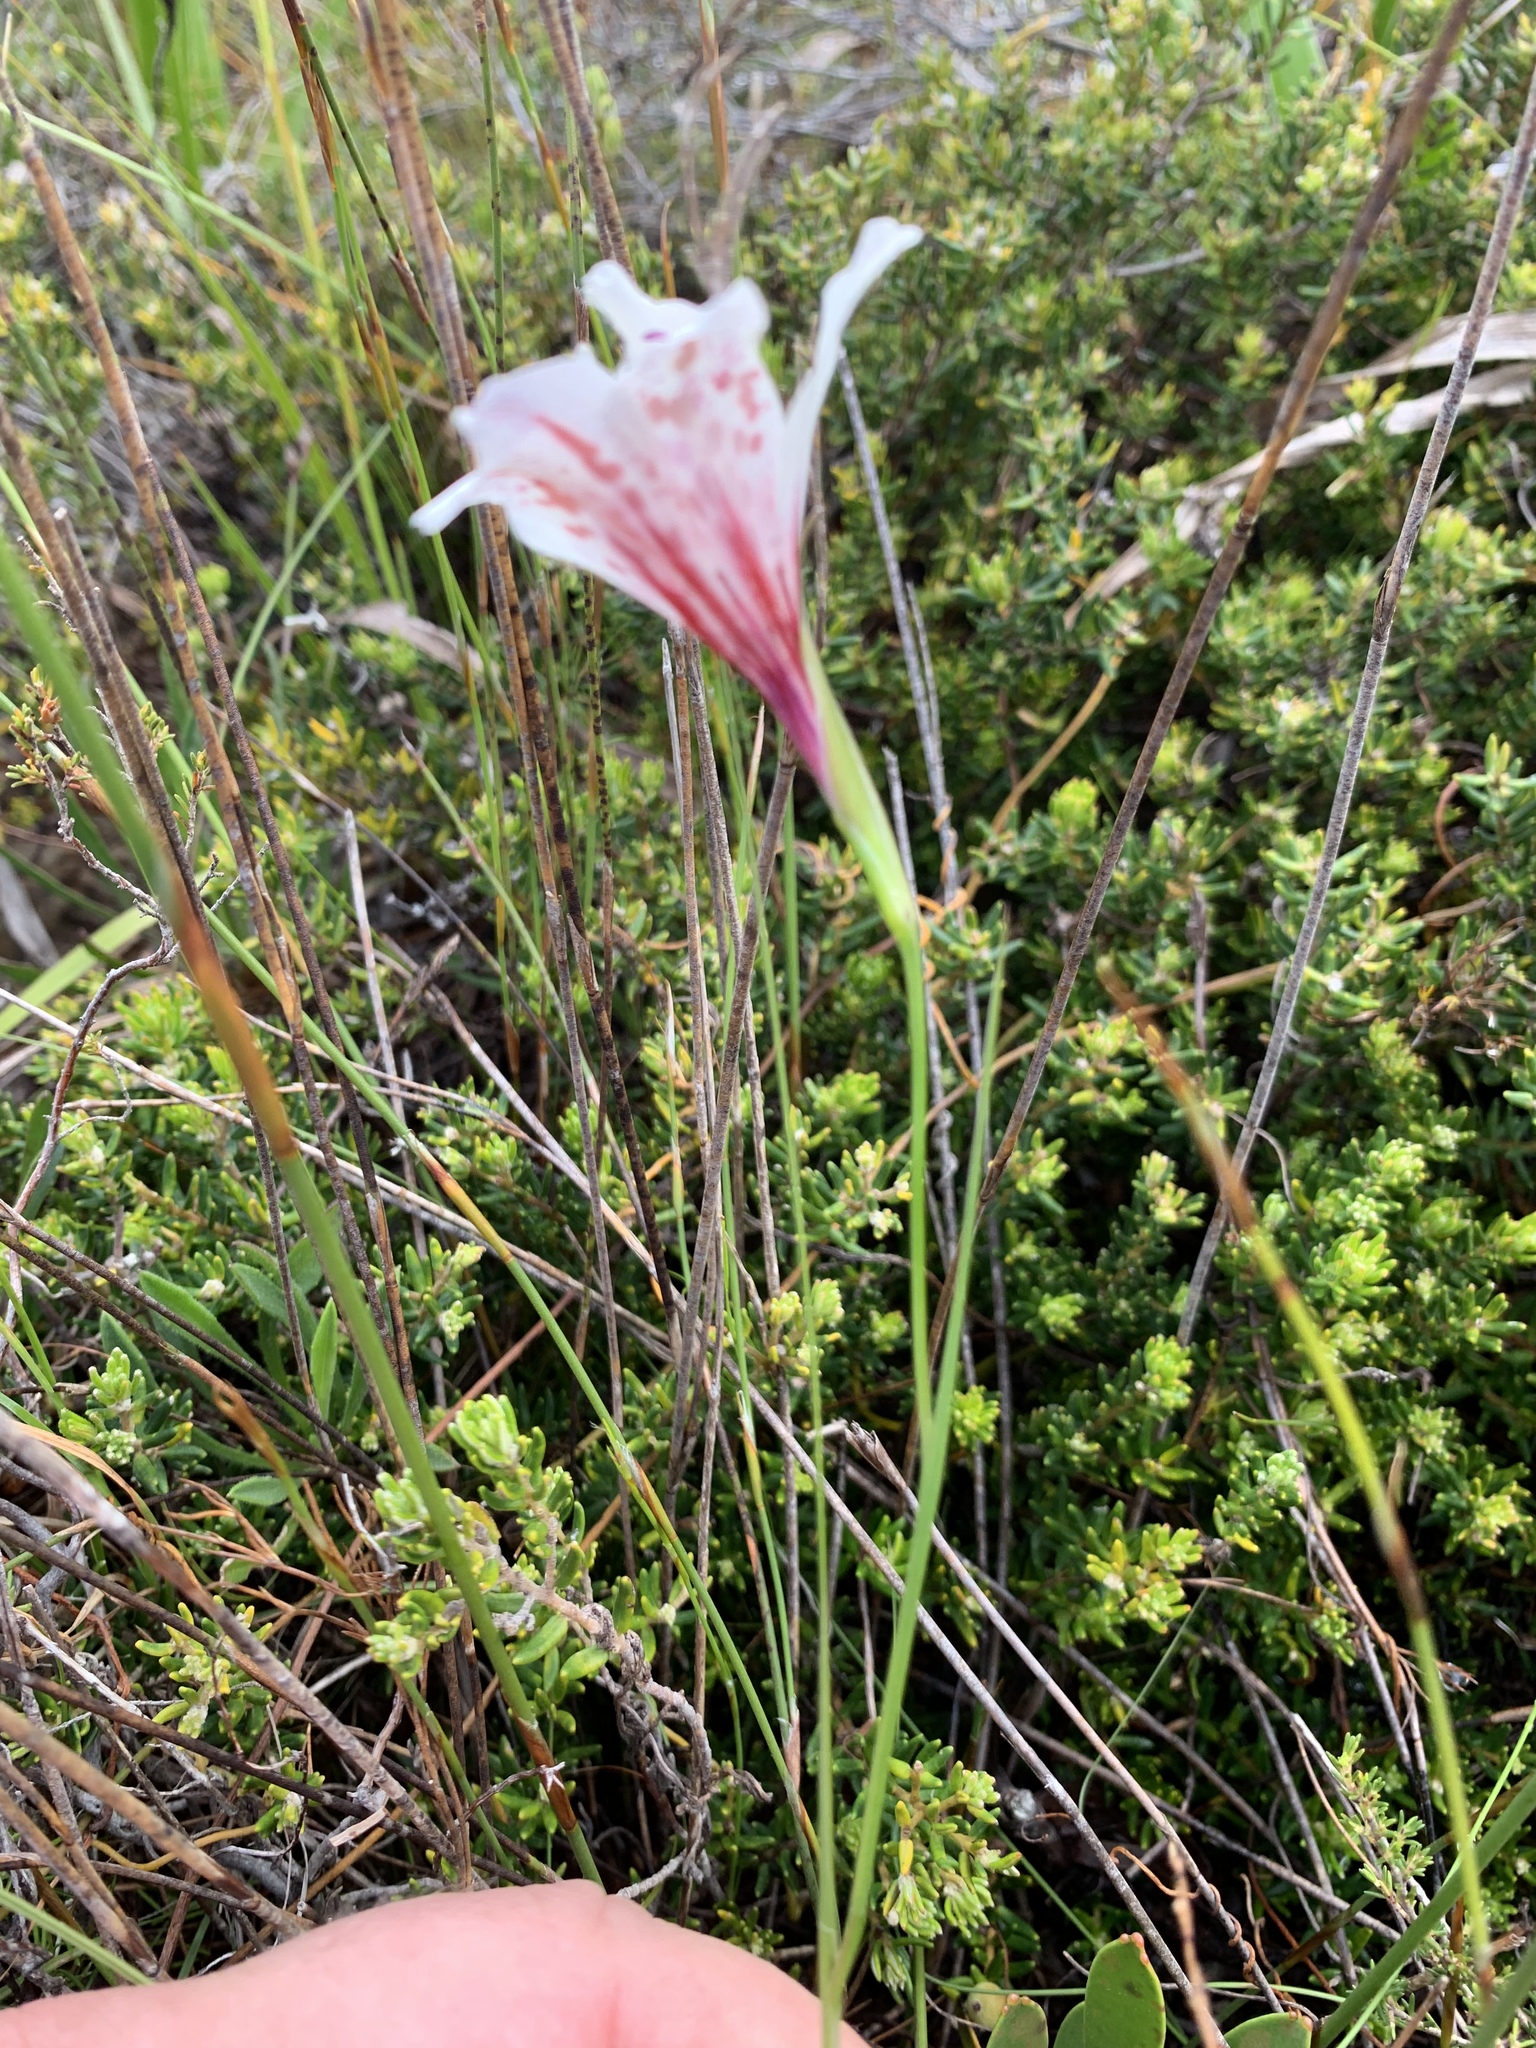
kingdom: Plantae
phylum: Tracheophyta
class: Liliopsida
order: Asparagales
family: Iridaceae
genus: Gladiolus
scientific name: Gladiolus debilis
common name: Painted-lady
